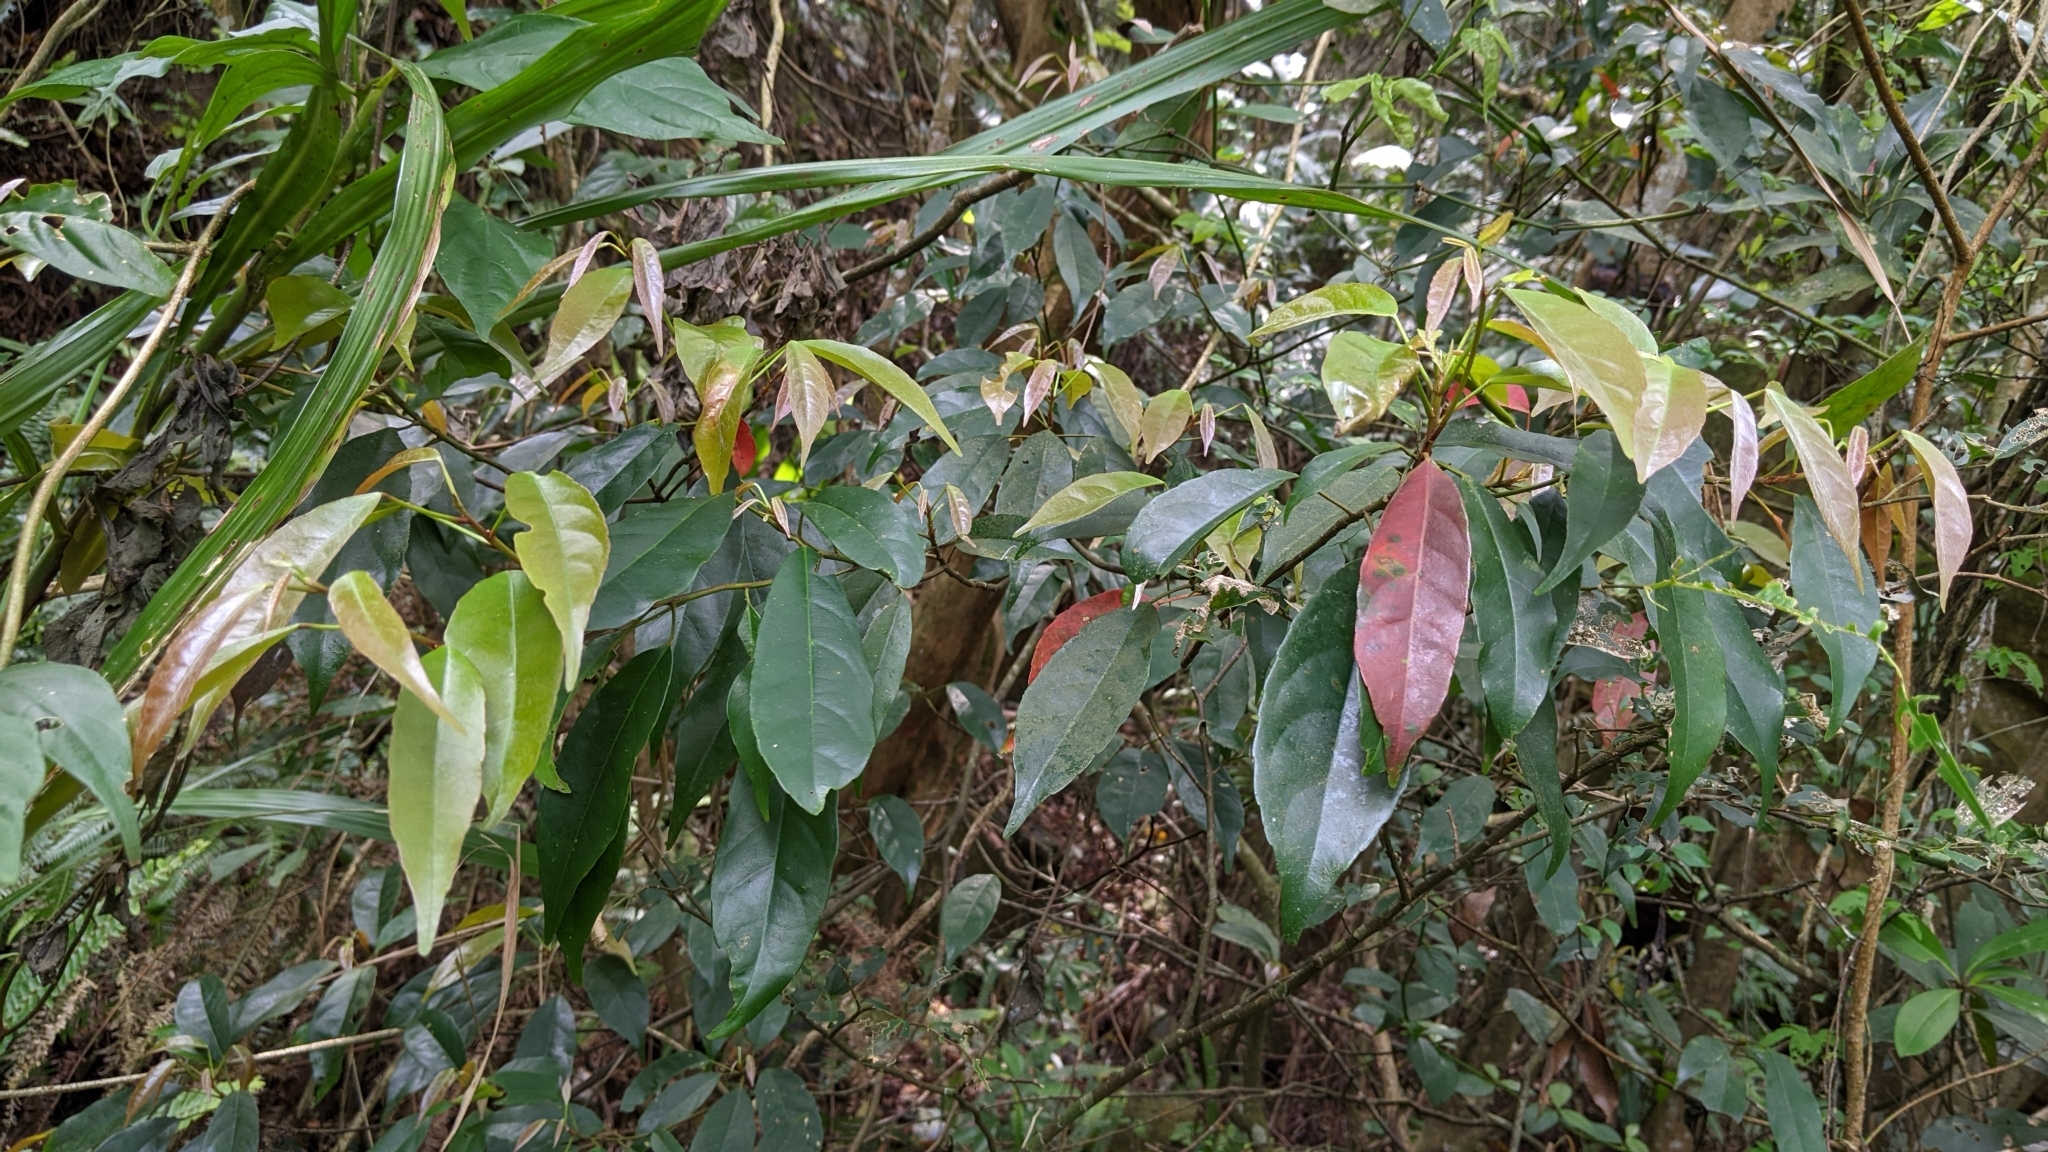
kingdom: Plantae
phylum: Tracheophyta
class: Magnoliopsida
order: Oxalidales
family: Elaeocarpaceae
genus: Elaeocarpus
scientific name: Elaeocarpus japonicus
